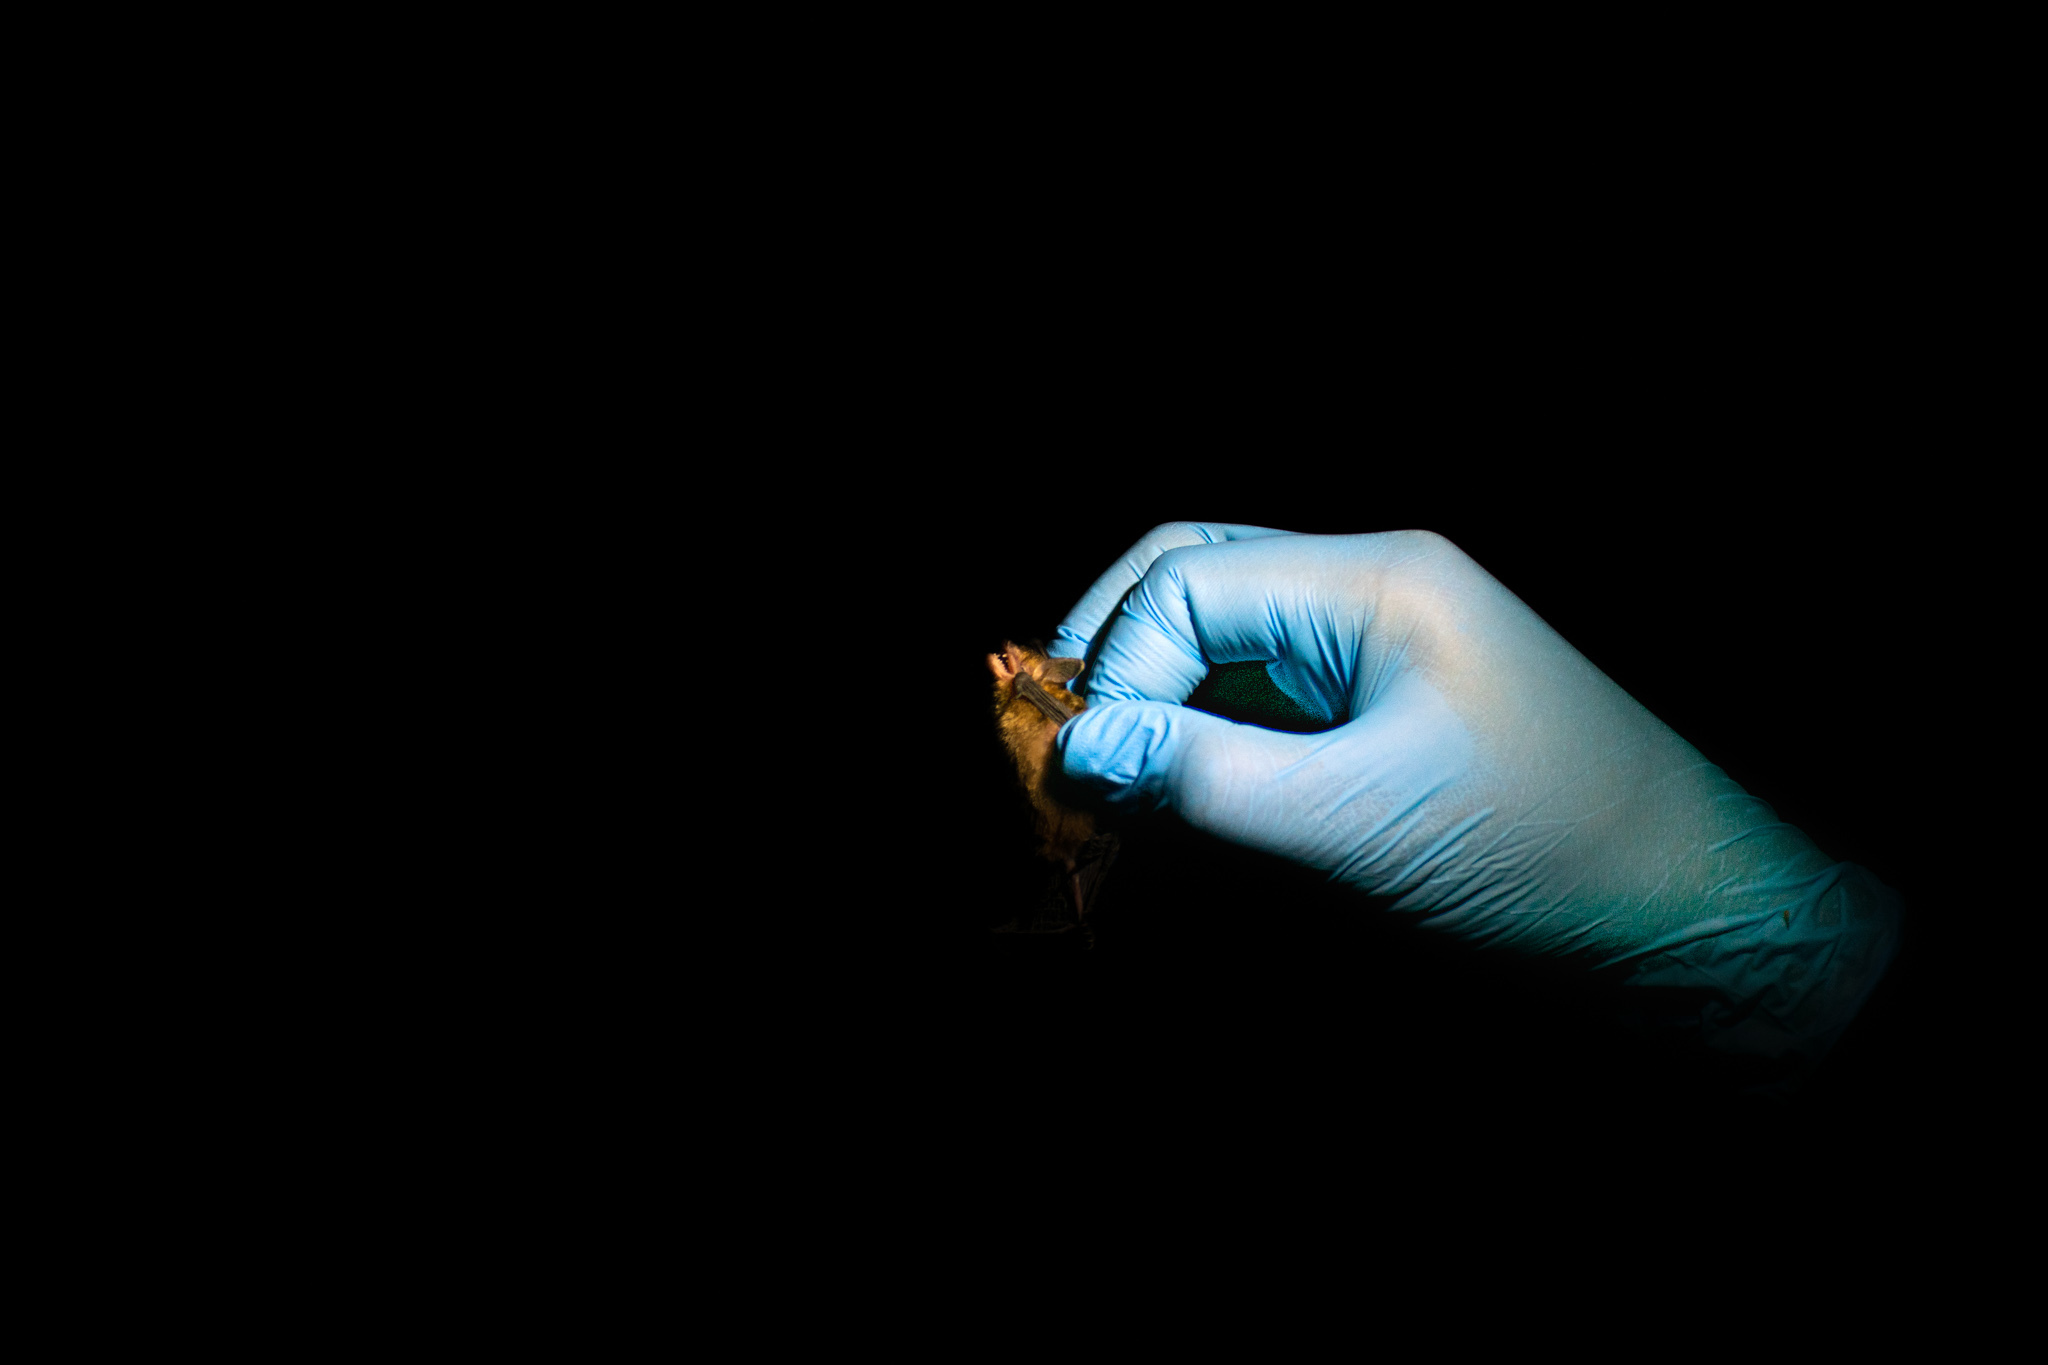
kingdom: Animalia
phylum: Chordata
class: Mammalia
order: Chiroptera
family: Vespertilionidae
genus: Rhogeessa
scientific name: Rhogeessa io
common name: Thomas's yellow bat
